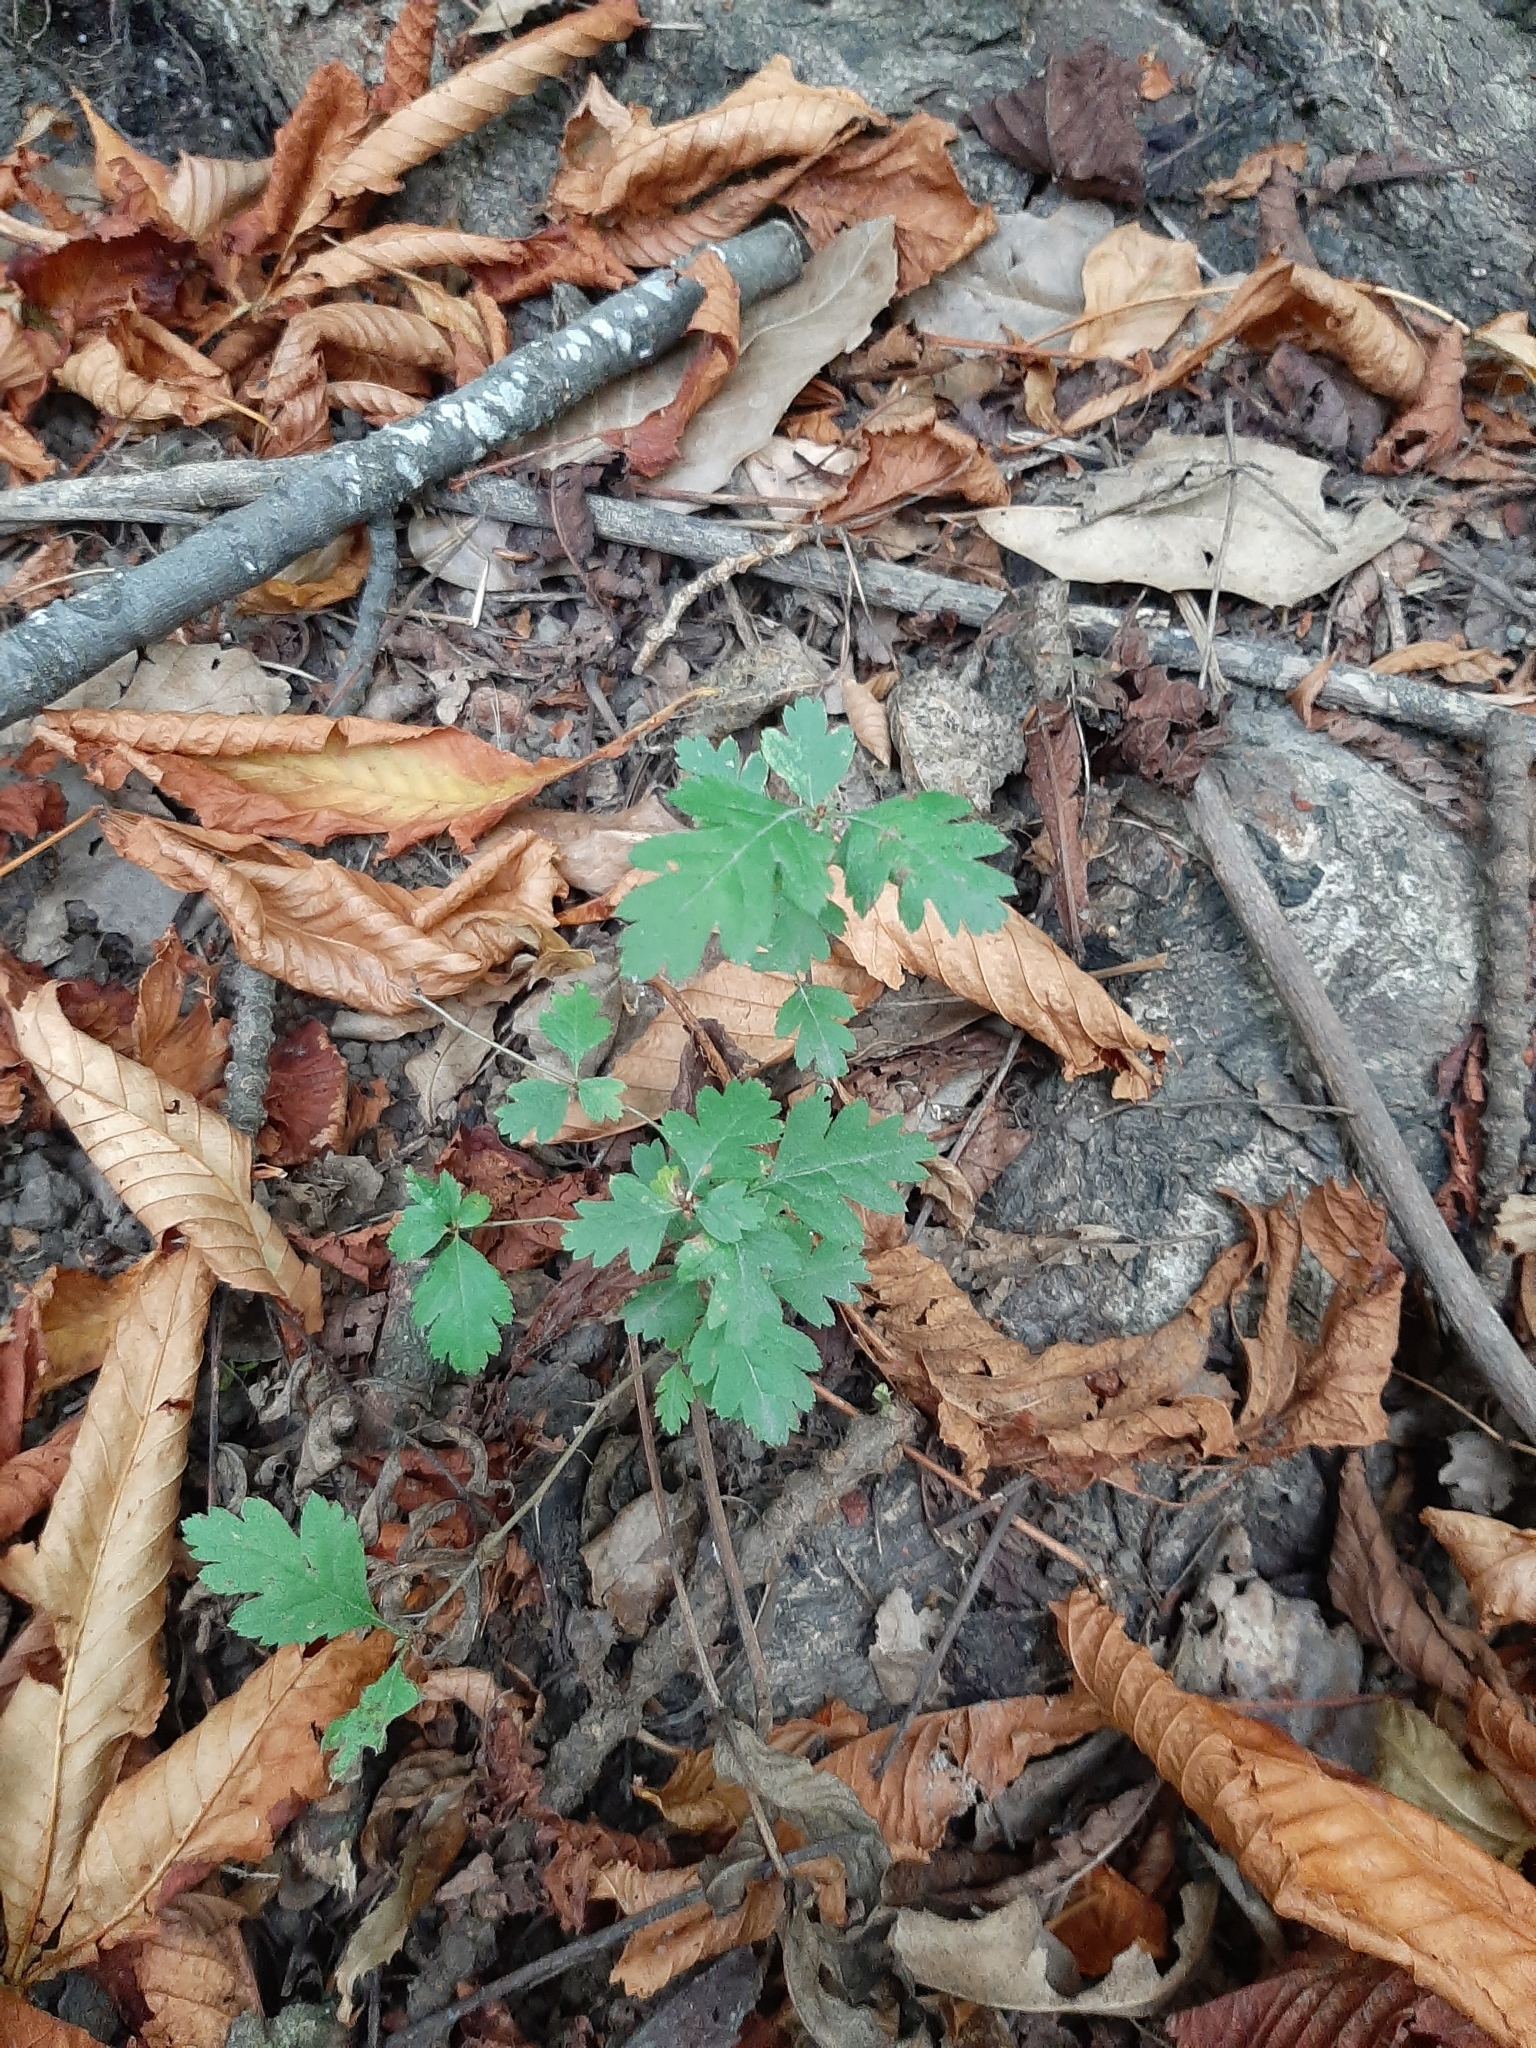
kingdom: Plantae
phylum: Tracheophyta
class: Magnoliopsida
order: Rosales
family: Rosaceae
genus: Crataegus
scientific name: Crataegus monogyna
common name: Hawthorn
